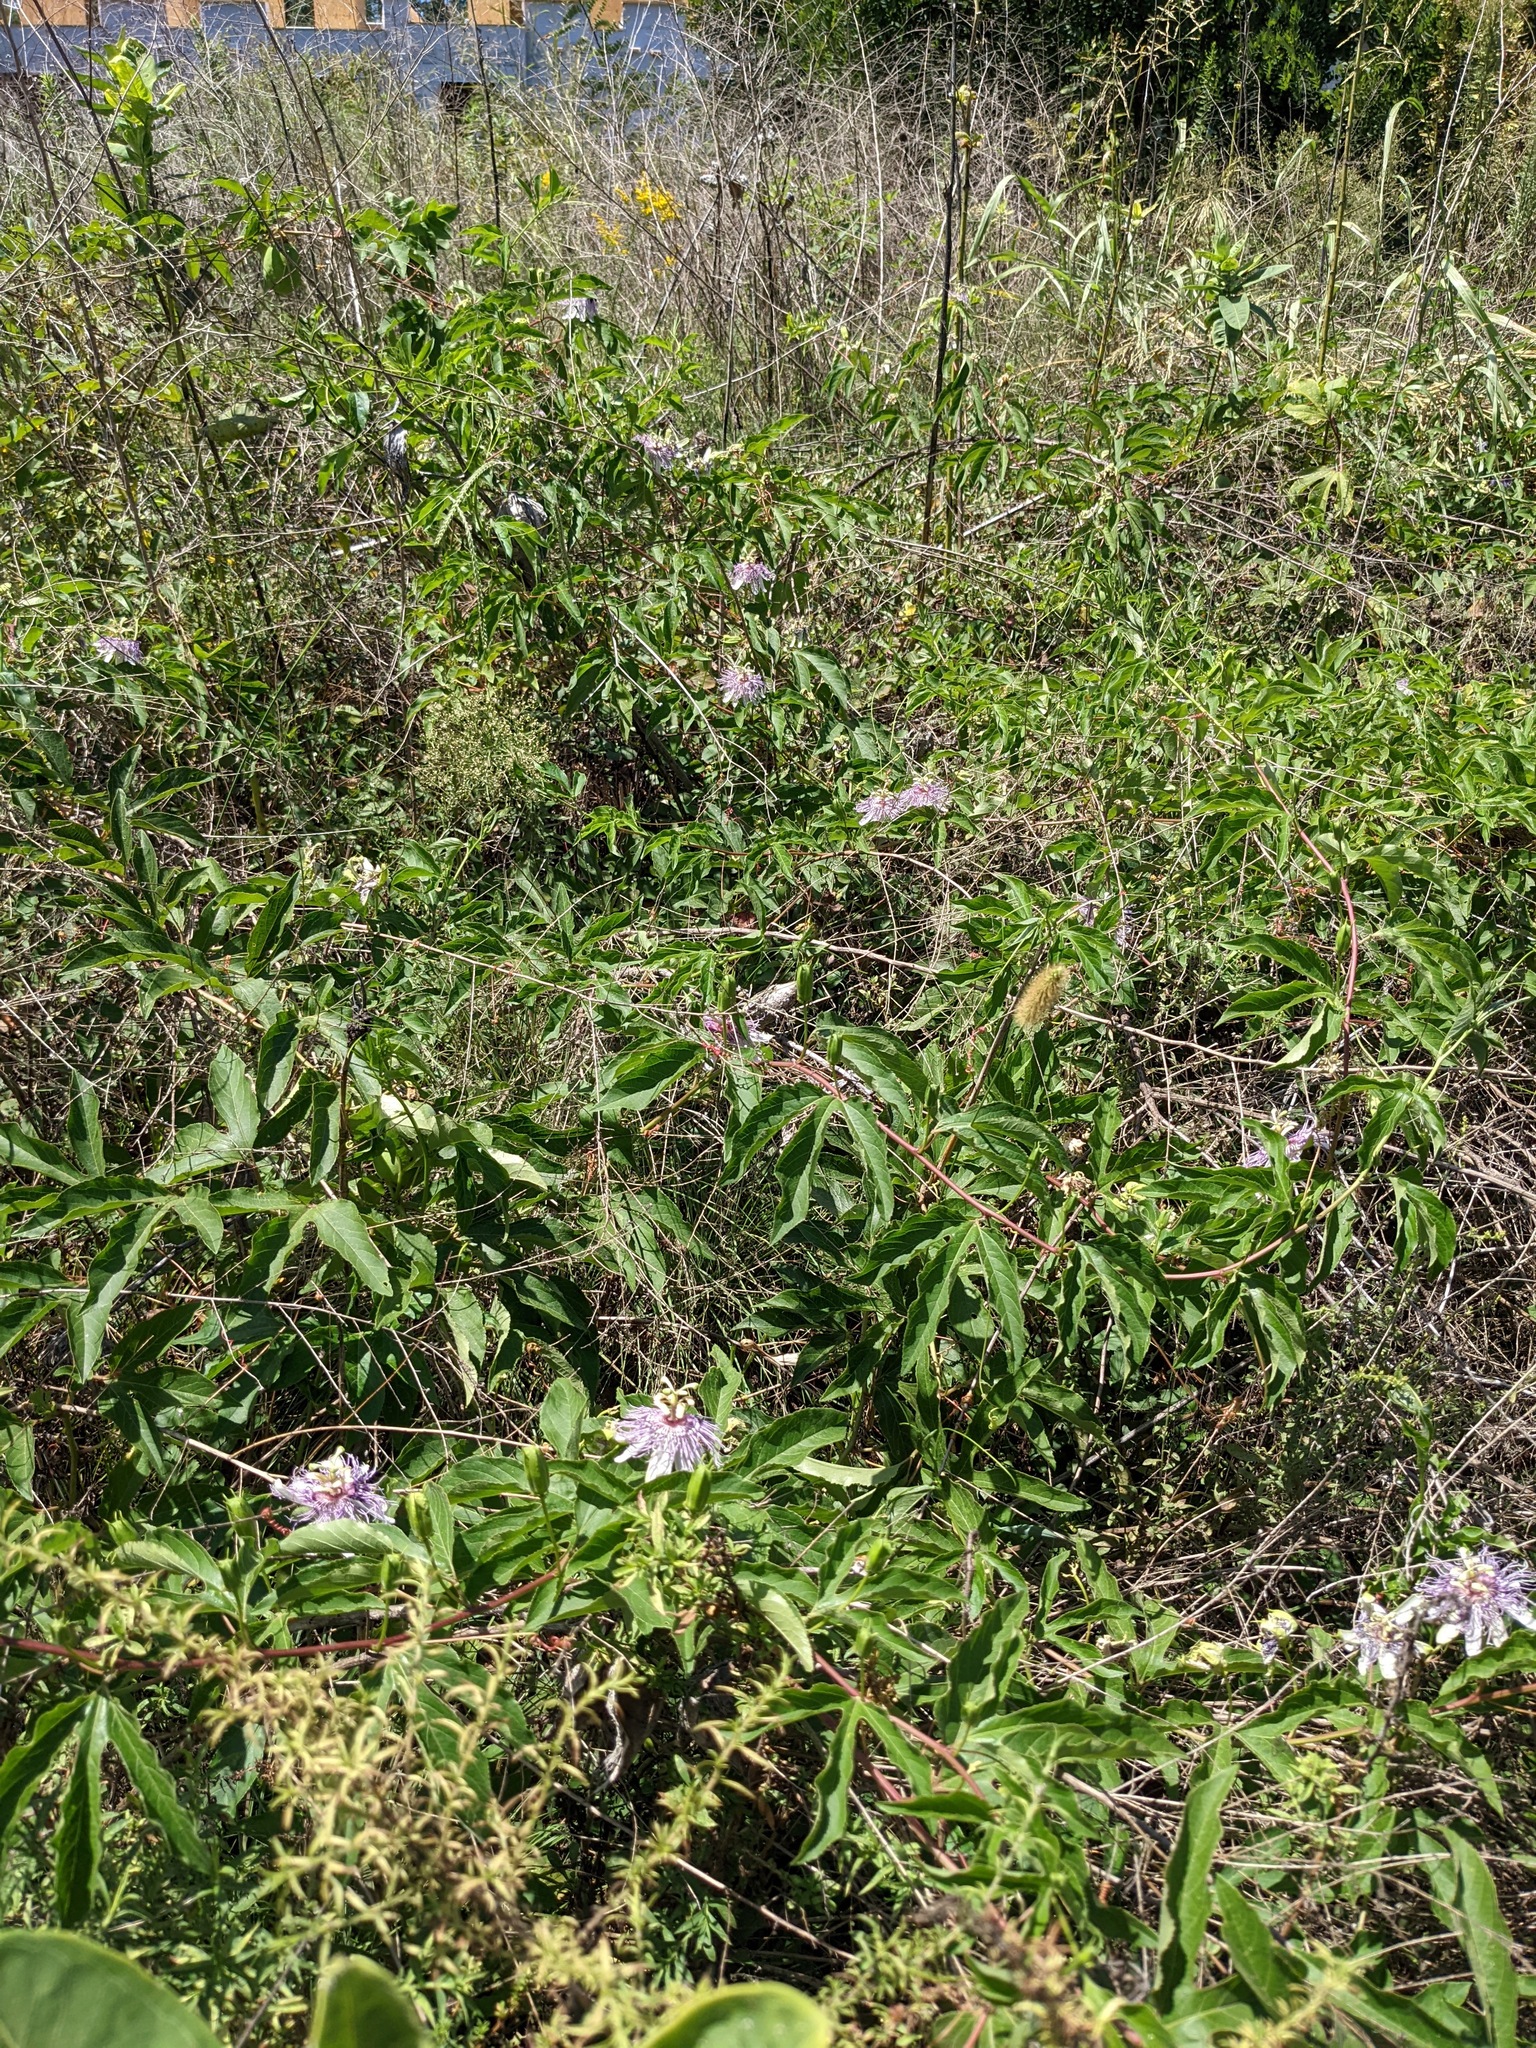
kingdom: Plantae
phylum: Tracheophyta
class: Magnoliopsida
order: Malpighiales
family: Passifloraceae
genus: Passiflora
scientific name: Passiflora incarnata
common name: Apricot-vine
